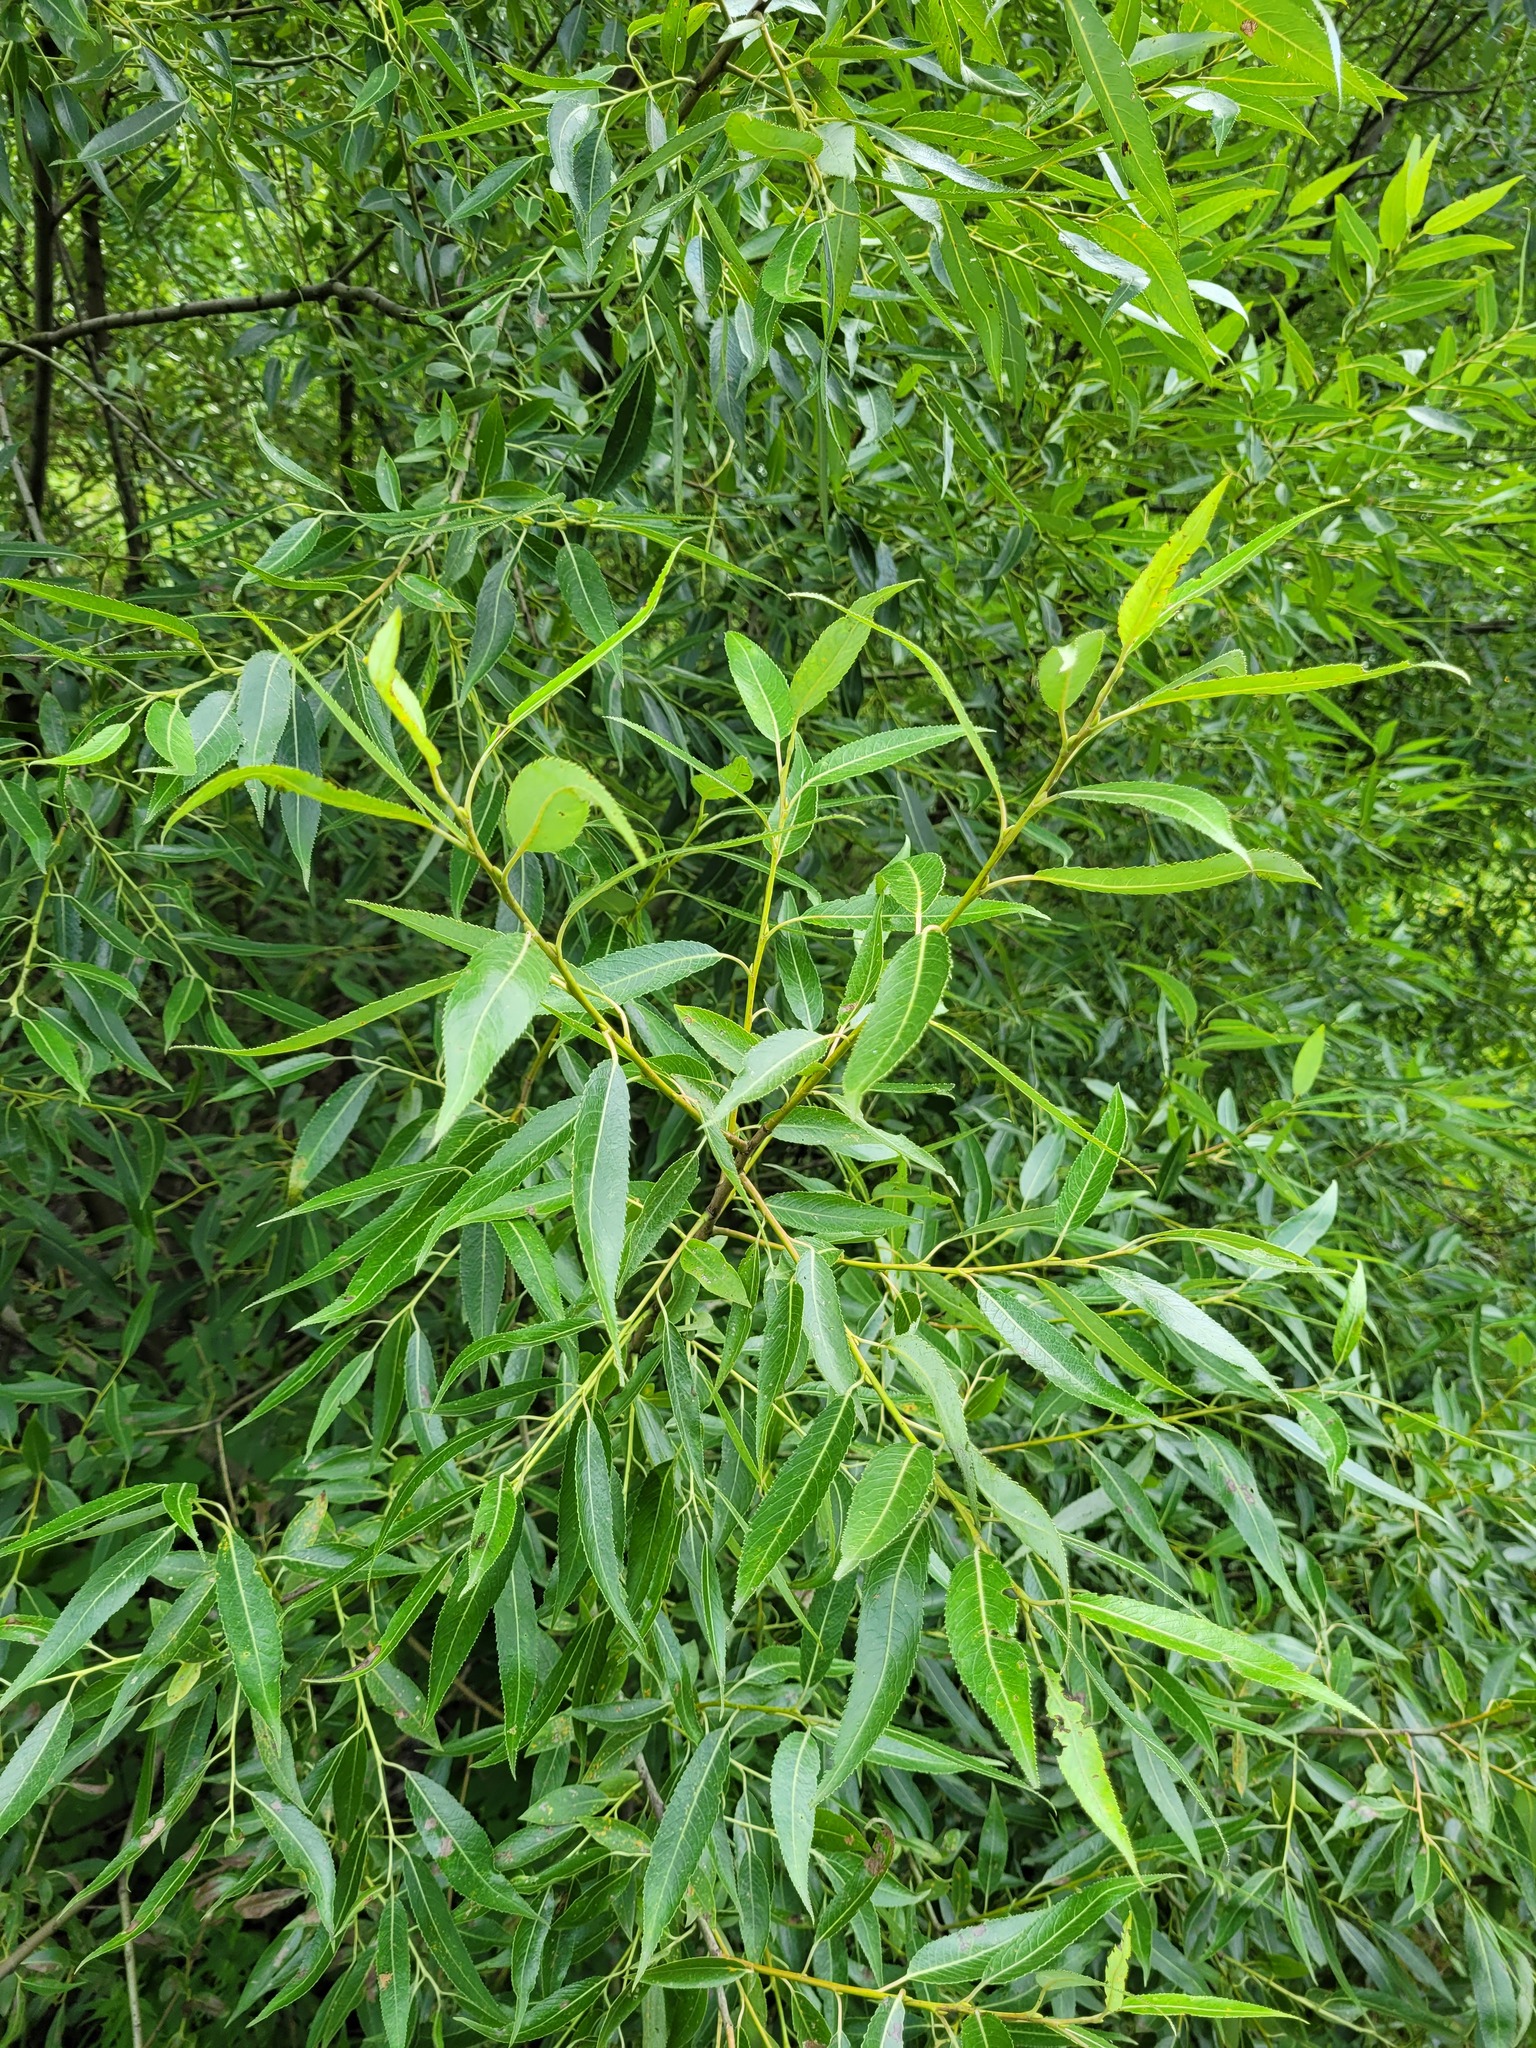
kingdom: Plantae
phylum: Tracheophyta
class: Magnoliopsida
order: Malpighiales
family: Salicaceae
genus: Salix
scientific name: Salix alba
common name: White willow
